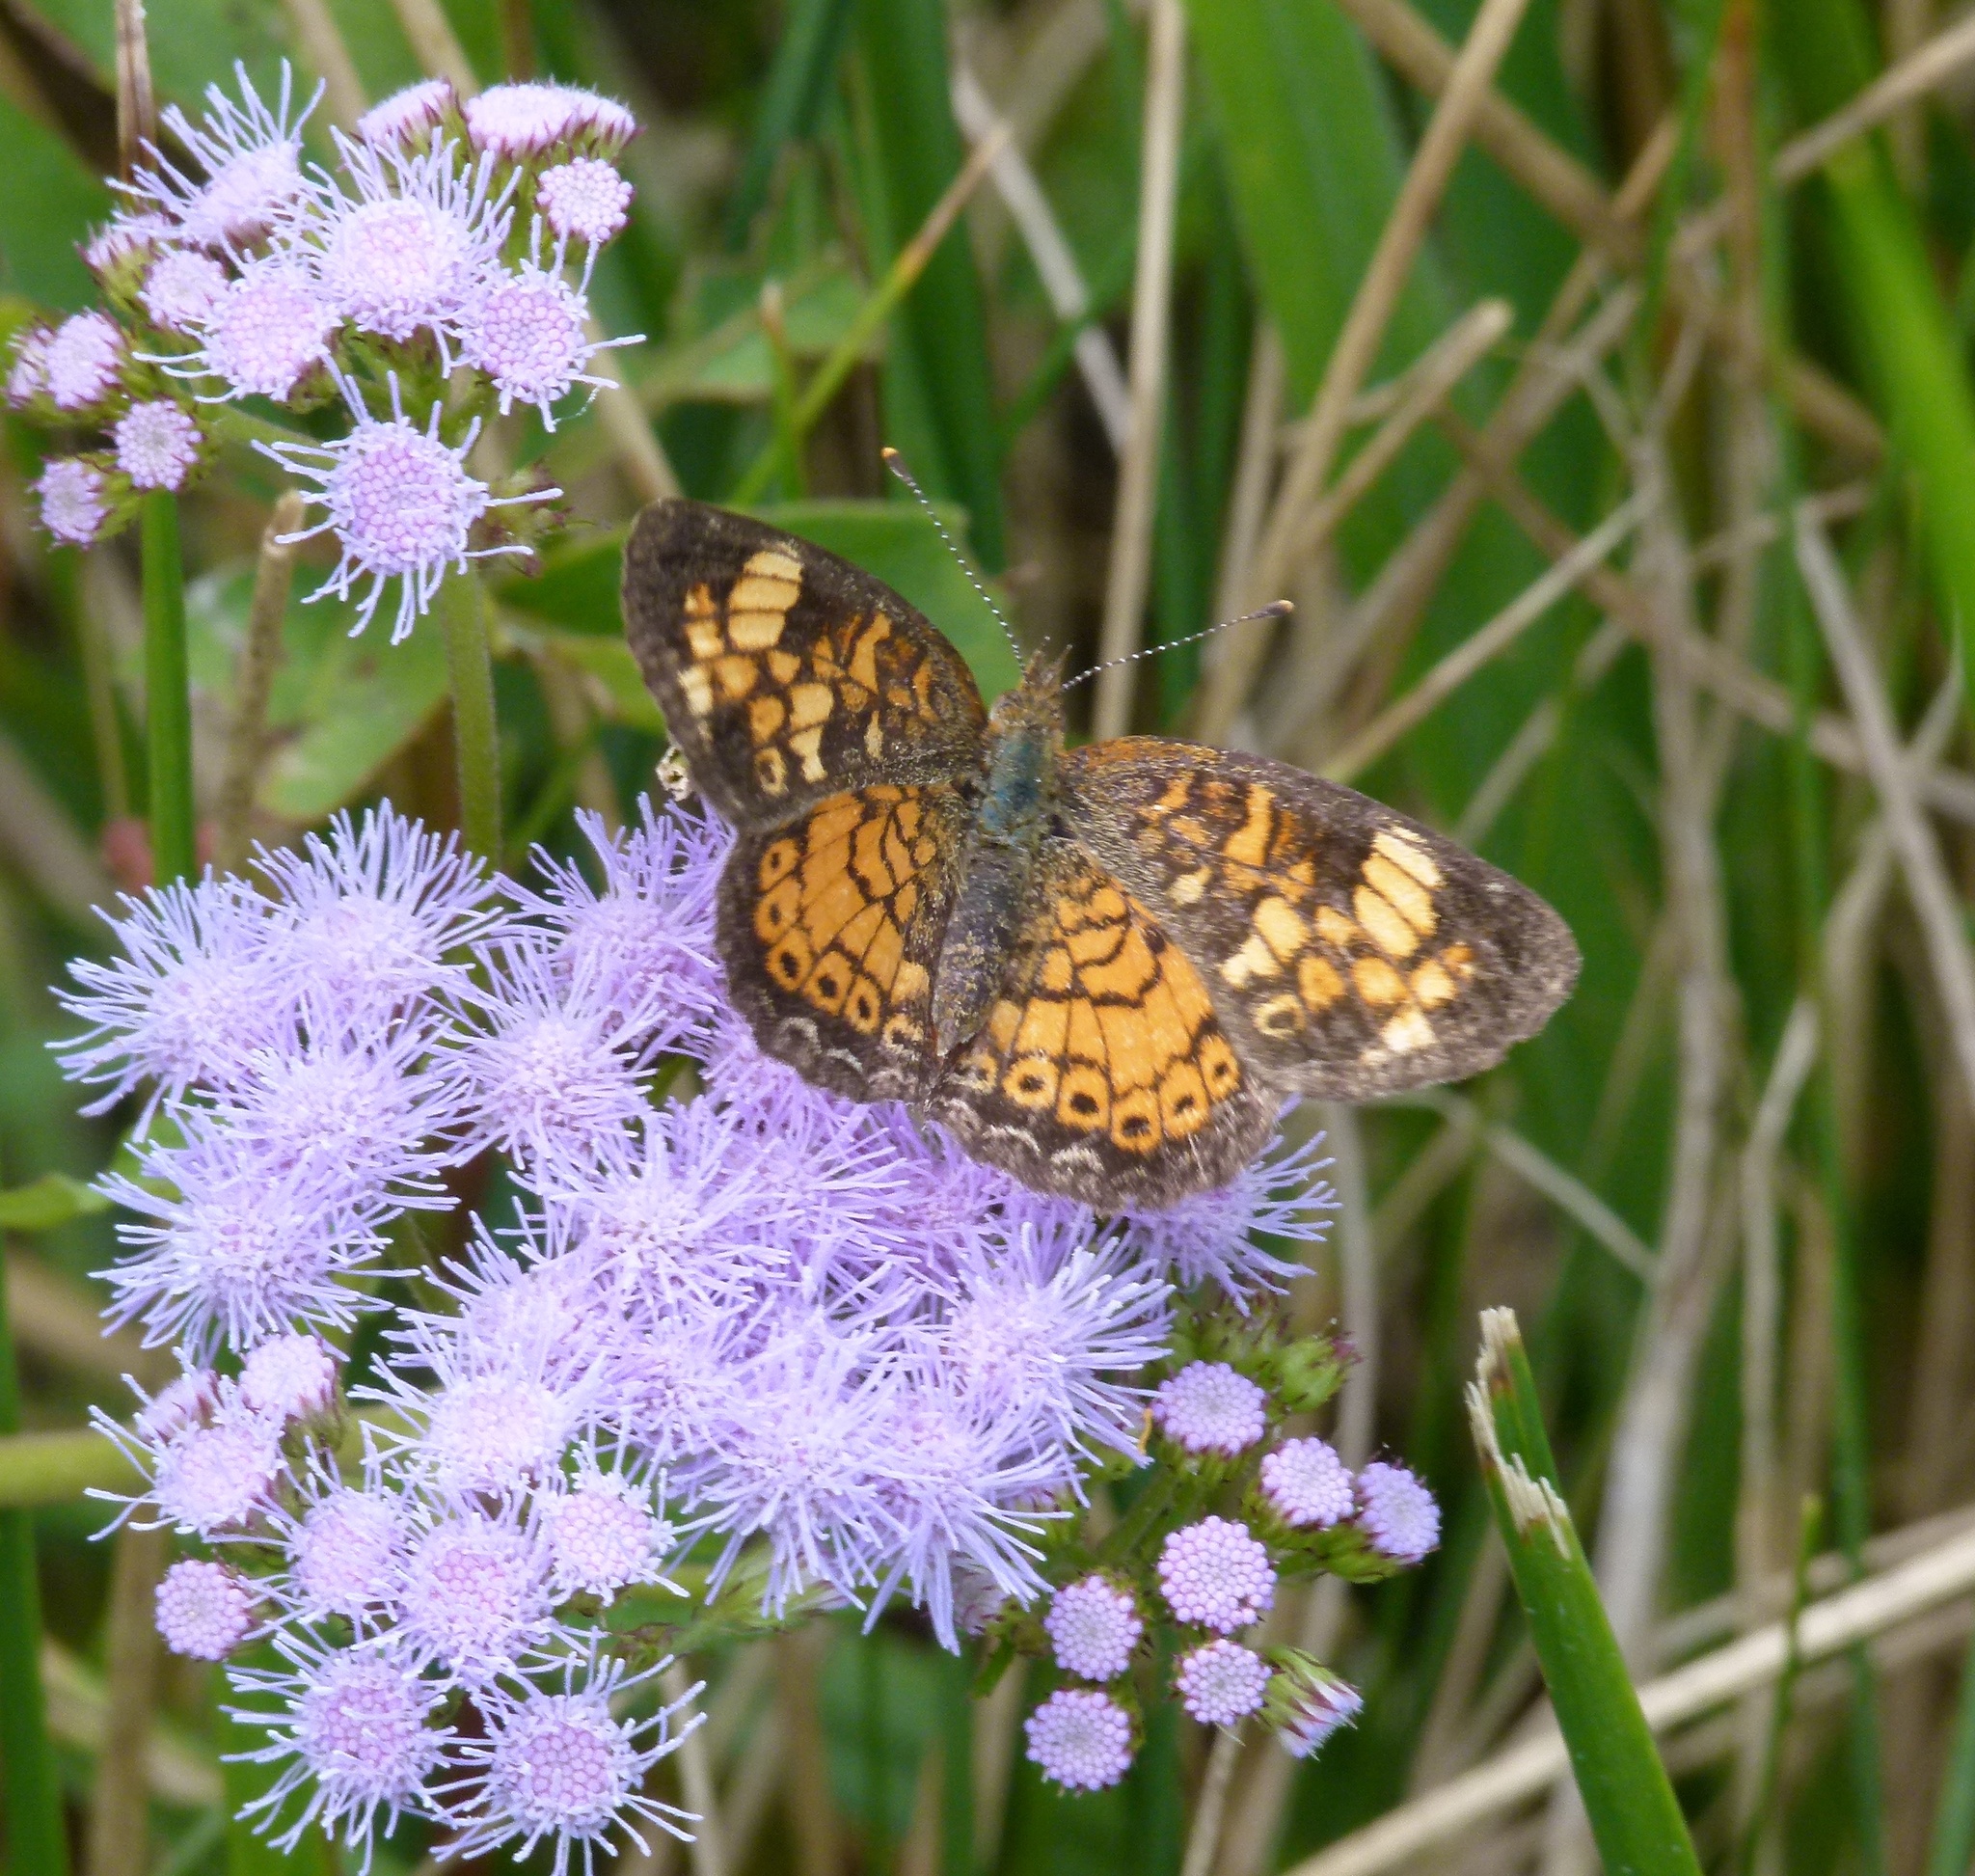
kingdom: Animalia
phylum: Arthropoda
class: Insecta
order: Lepidoptera
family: Nymphalidae
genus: Phyciodes
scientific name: Phyciodes tharos
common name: Pearl crescent
